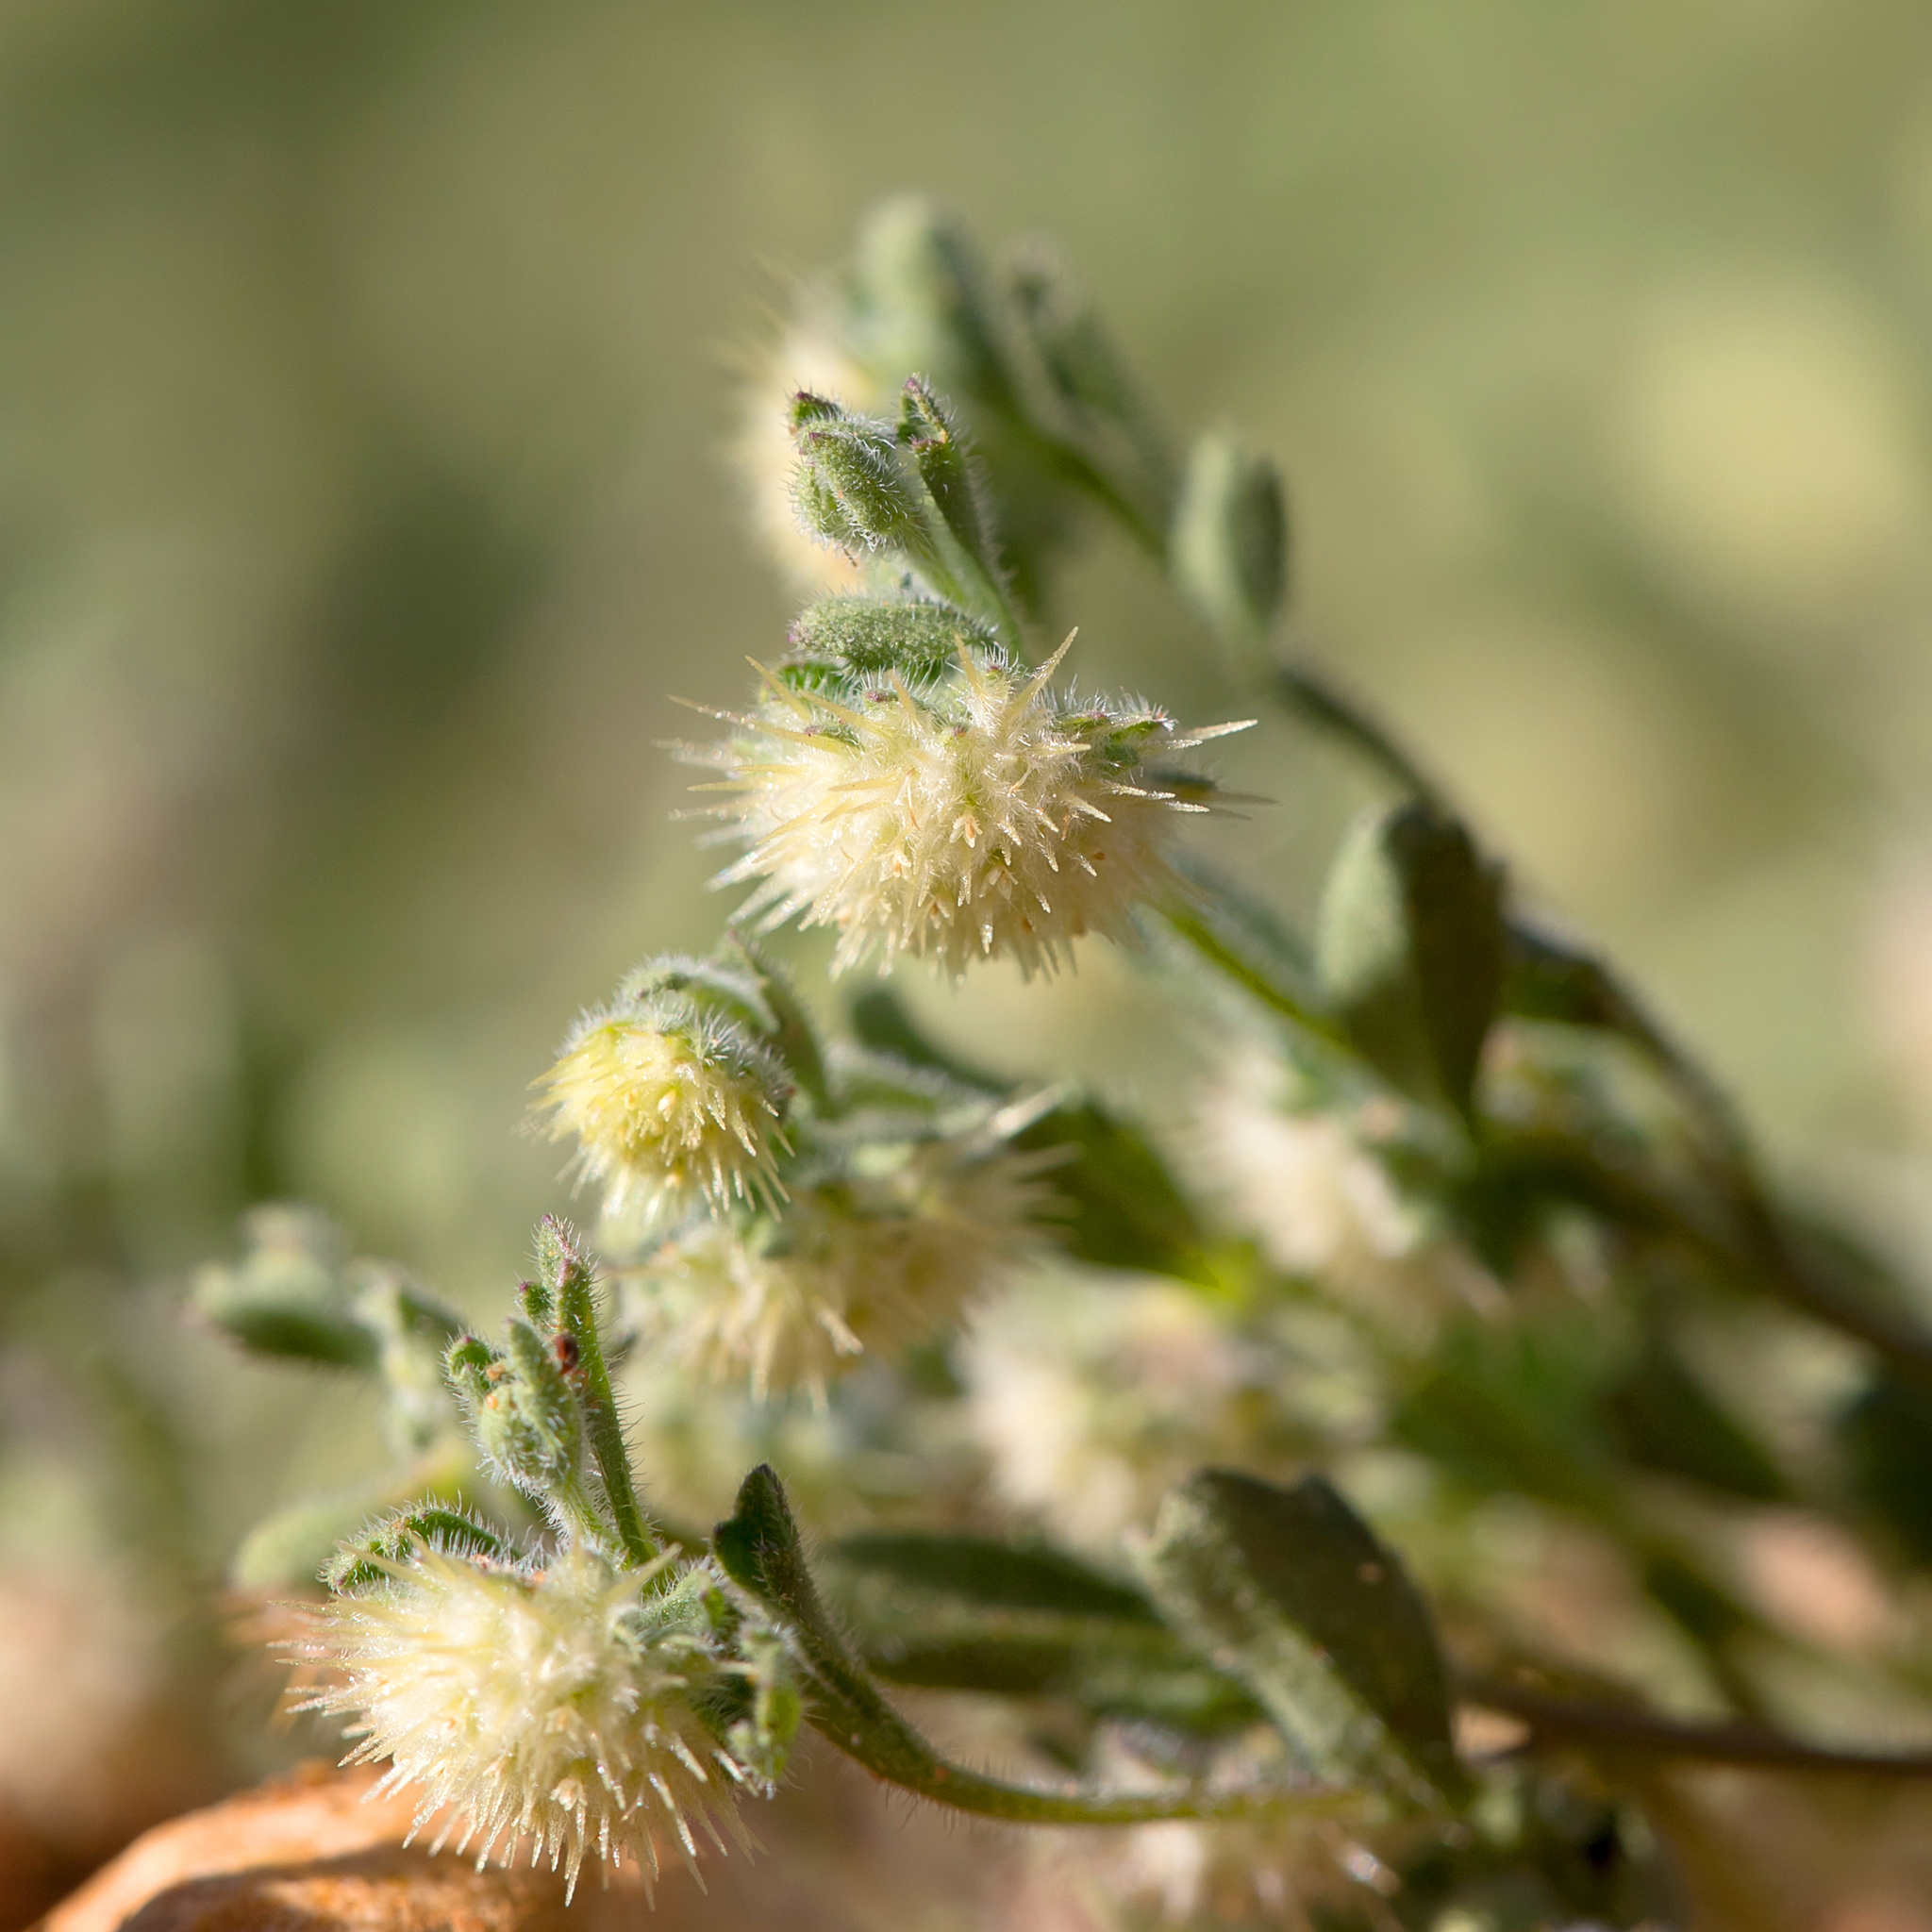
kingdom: Plantae
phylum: Tracheophyta
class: Magnoliopsida
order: Asterales
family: Asteraceae
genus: Calotis
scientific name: Calotis hispidula
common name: Bogan-flea
